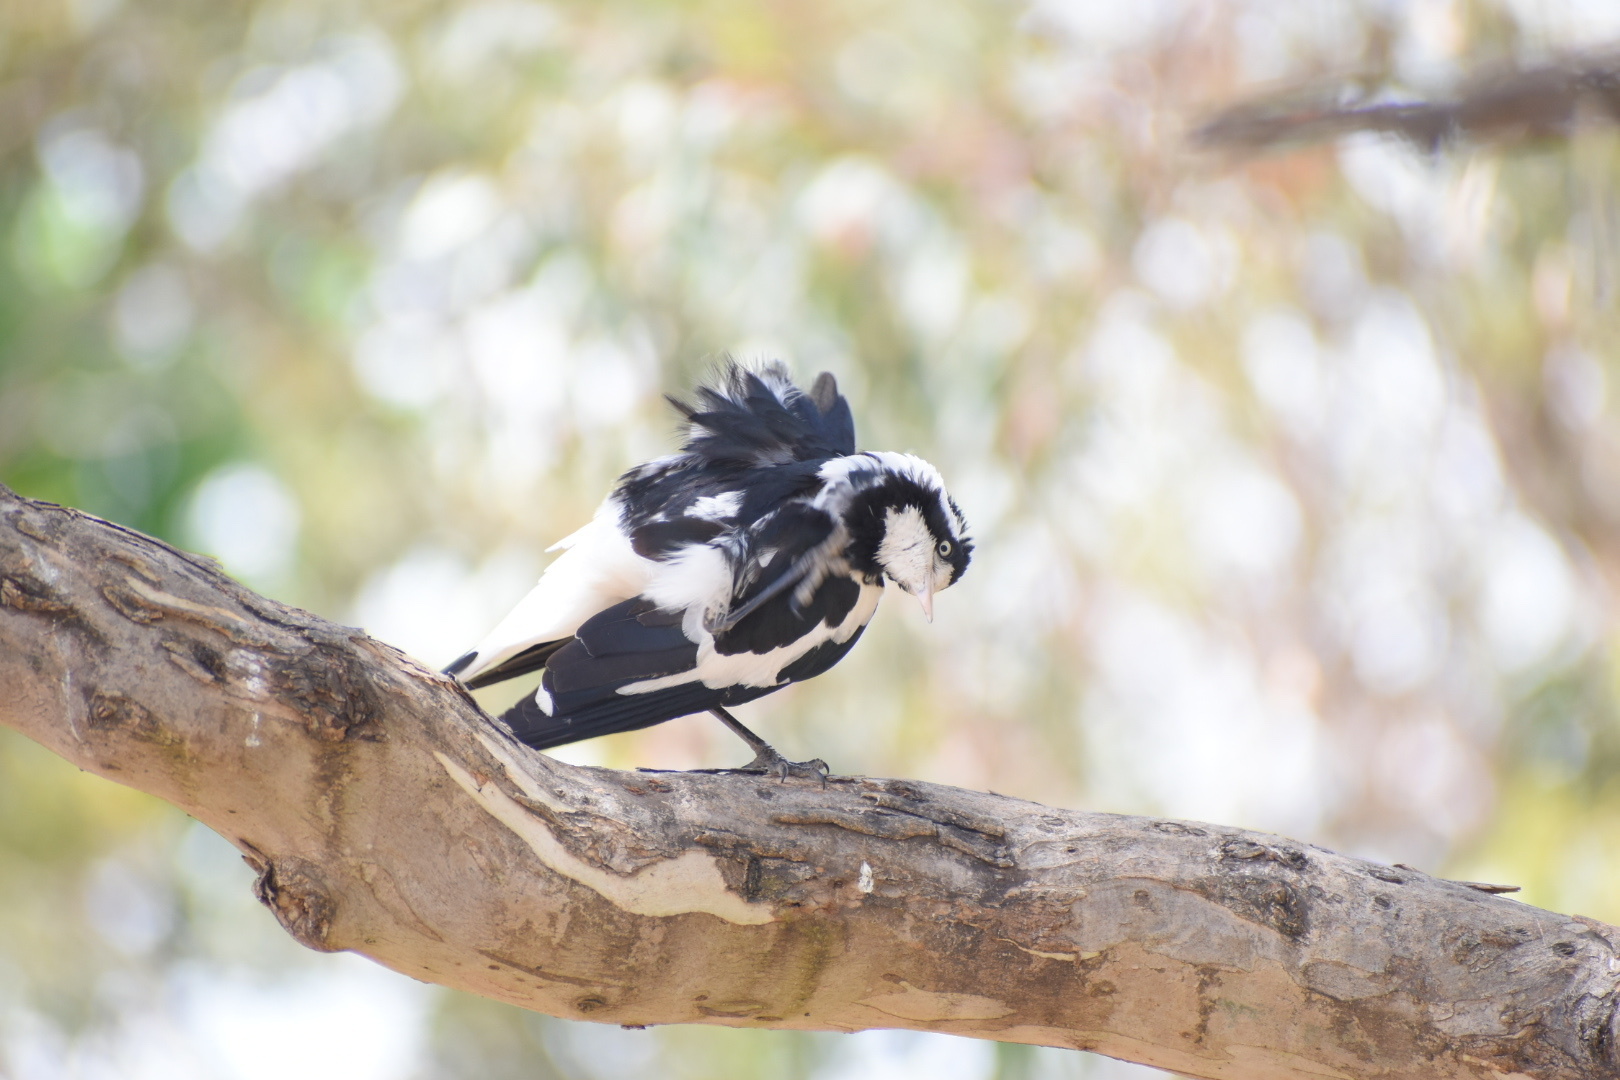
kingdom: Animalia
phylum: Chordata
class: Aves
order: Passeriformes
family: Monarchidae
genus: Grallina
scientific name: Grallina cyanoleuca
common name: Magpie-lark
